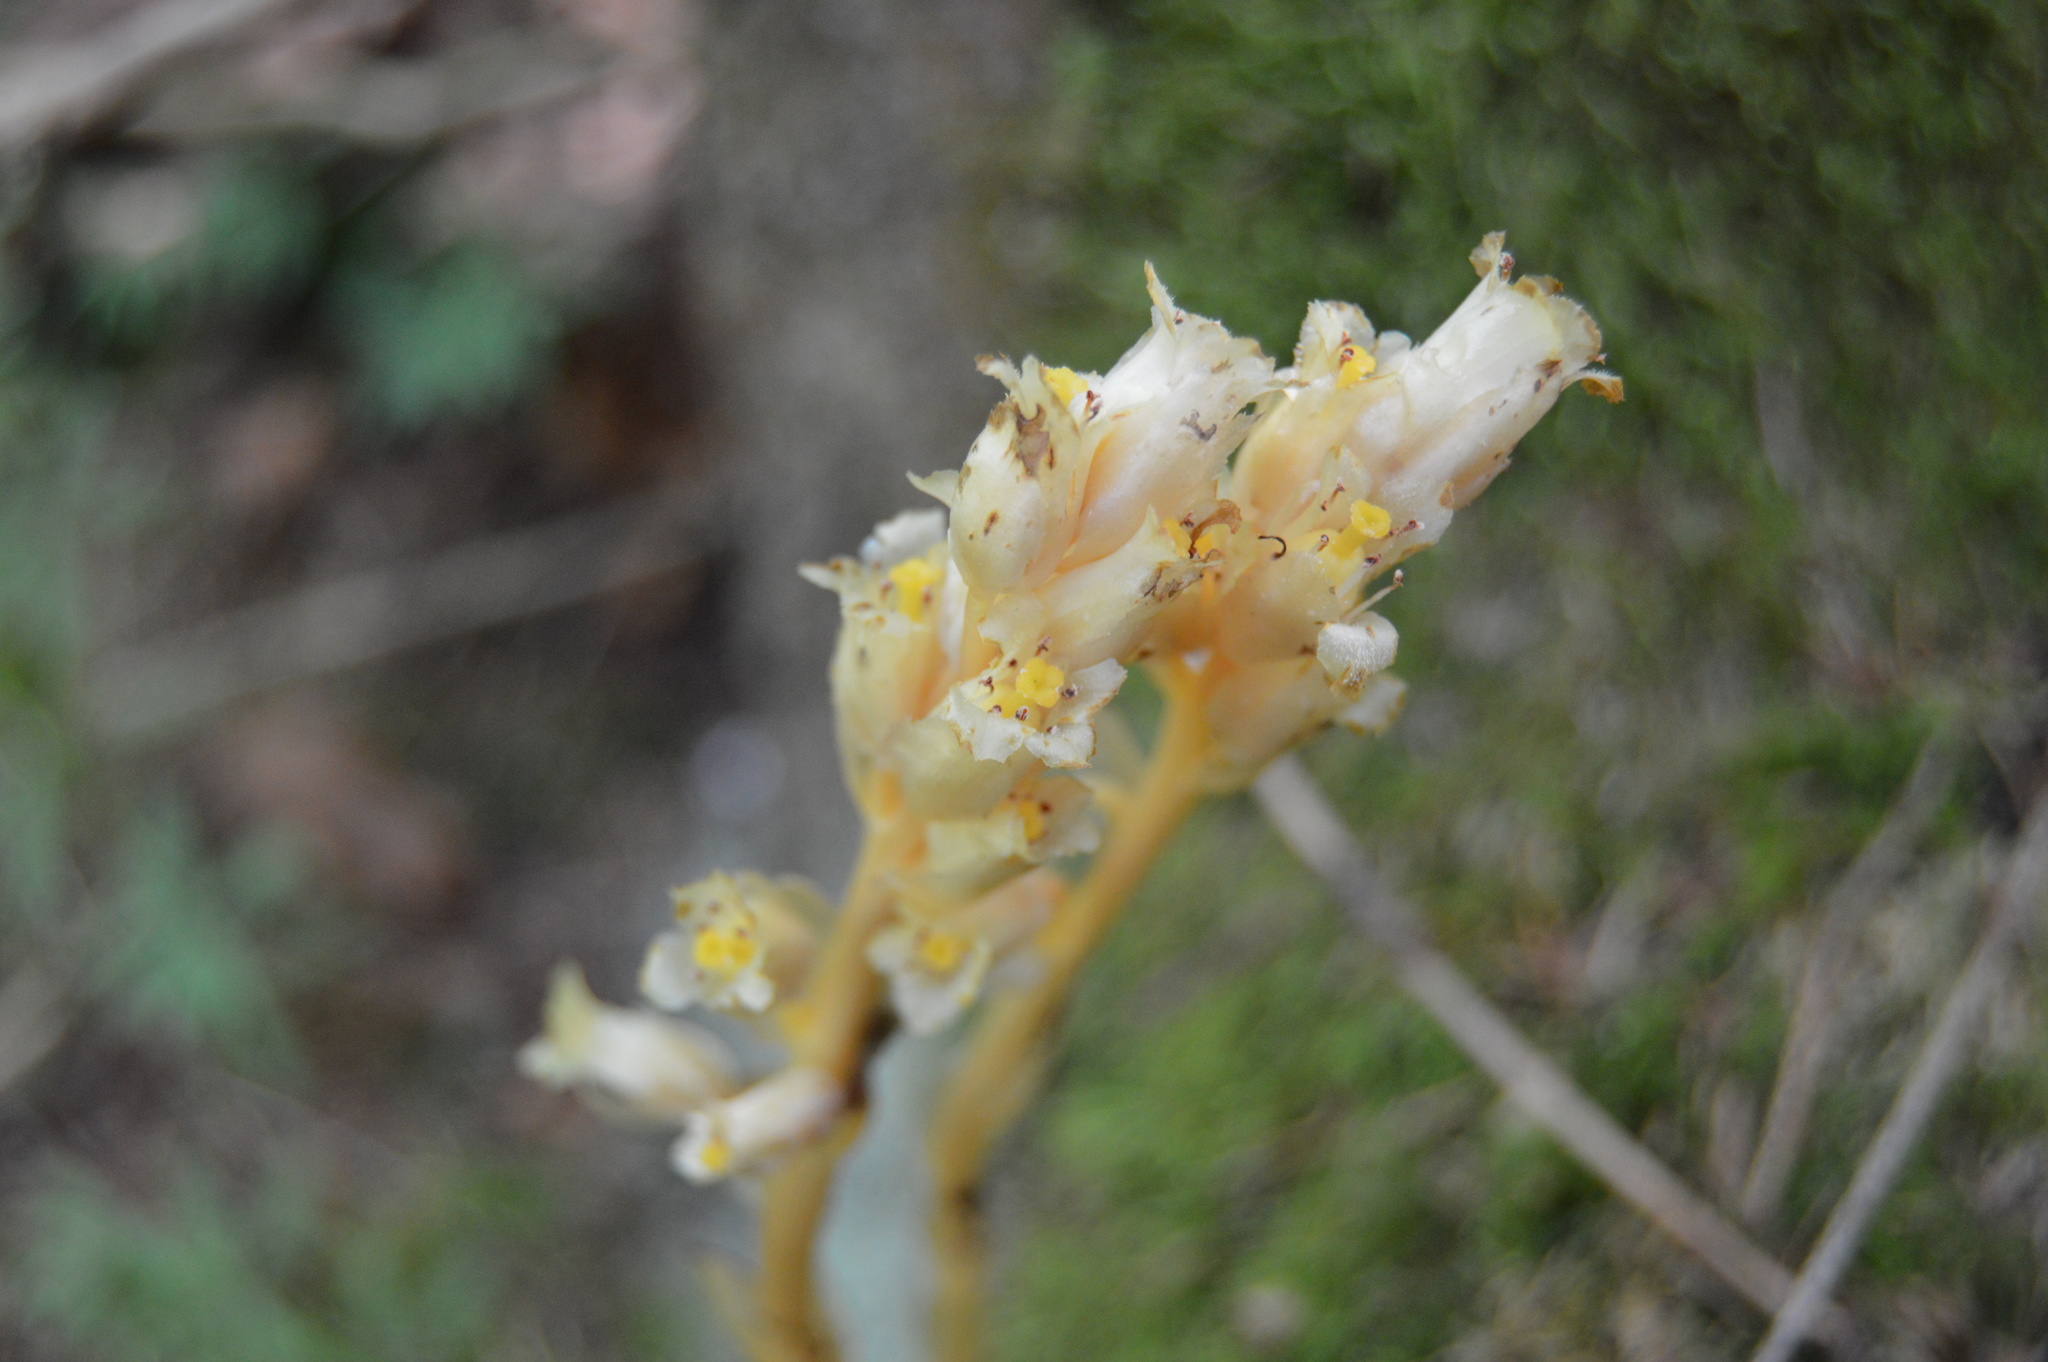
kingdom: Plantae
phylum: Tracheophyta
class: Magnoliopsida
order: Ericales
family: Ericaceae
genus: Hypopitys
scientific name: Hypopitys monotropa
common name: Yellow bird's-nest
